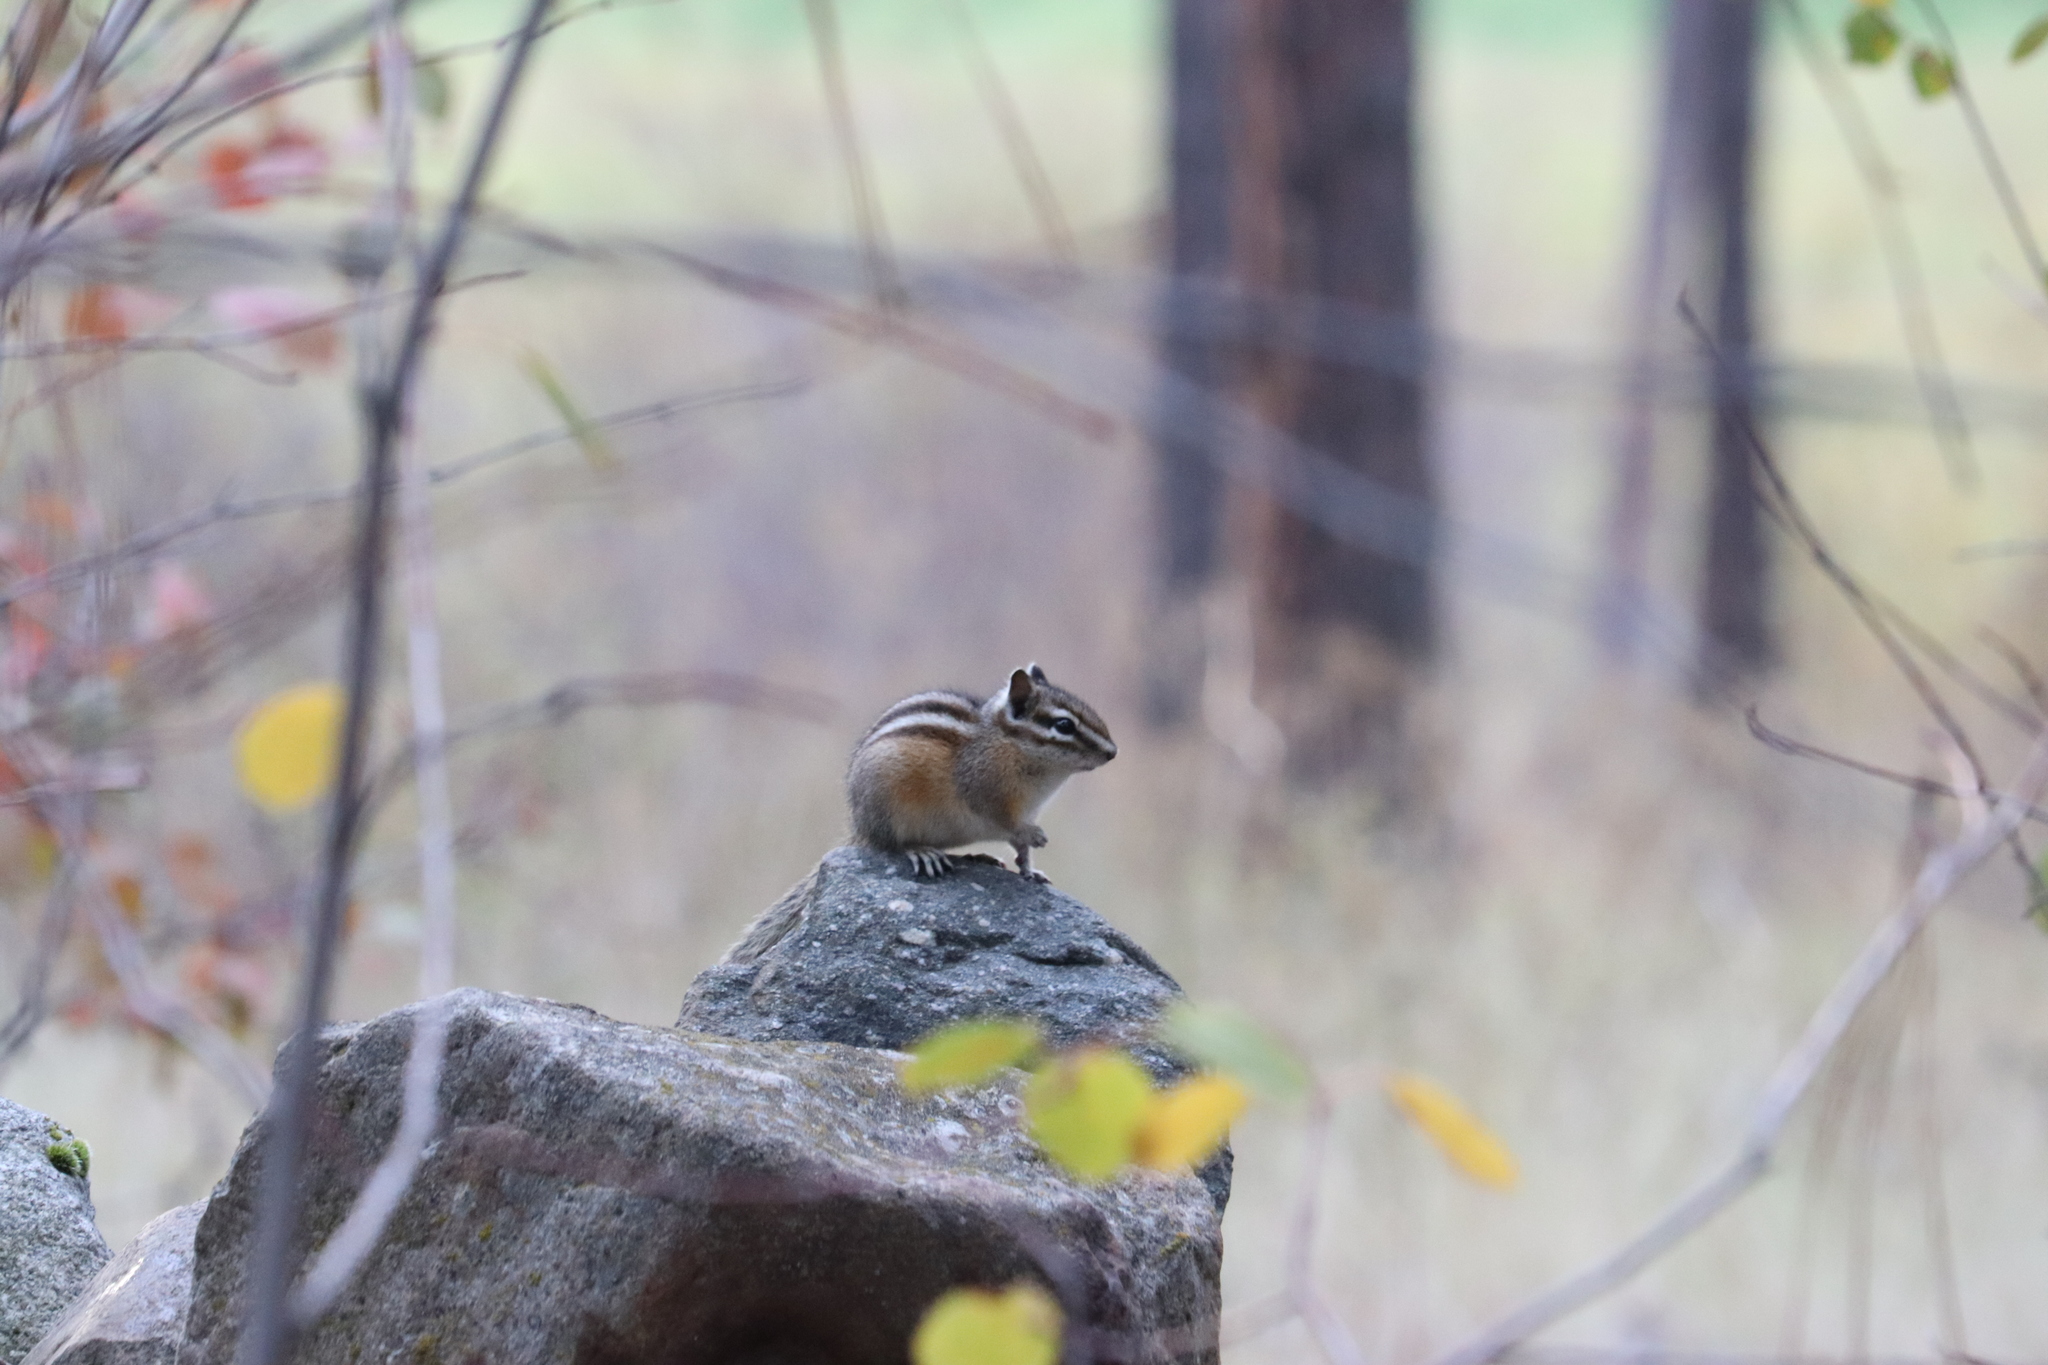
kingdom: Animalia
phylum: Chordata
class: Mammalia
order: Rodentia
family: Sciuridae
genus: Tamias
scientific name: Tamias amoenus
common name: Yellow-pine chipmunk
